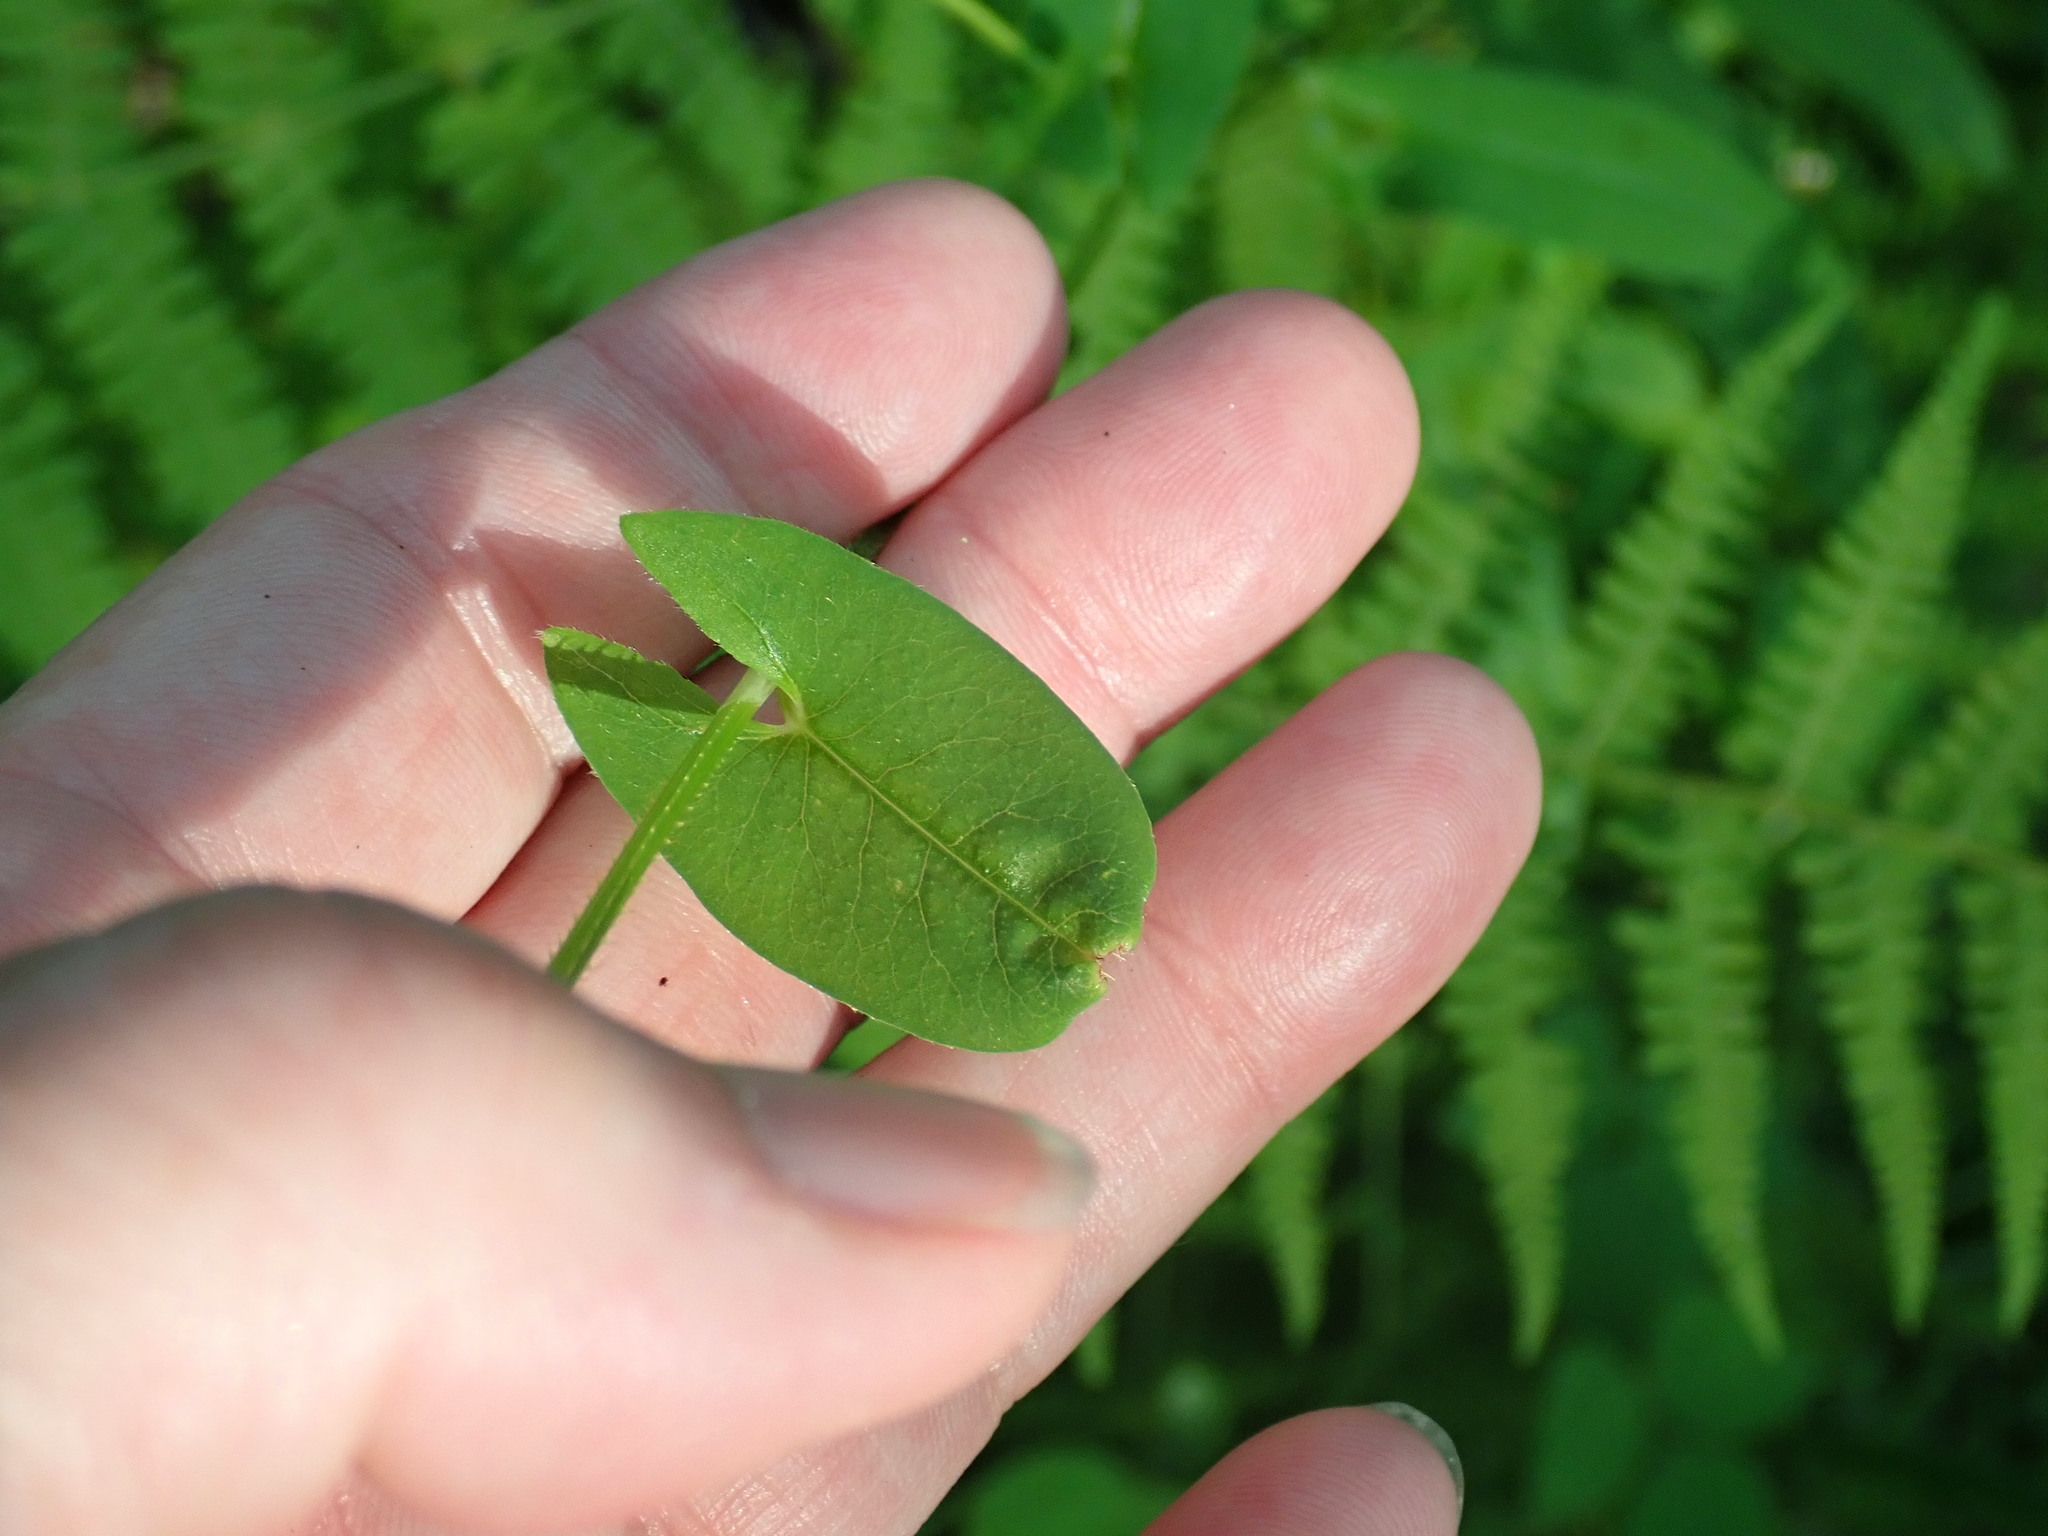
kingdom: Plantae
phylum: Tracheophyta
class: Magnoliopsida
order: Caryophyllales
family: Polygonaceae
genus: Persicaria
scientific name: Persicaria sagittata
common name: American tearthumb
